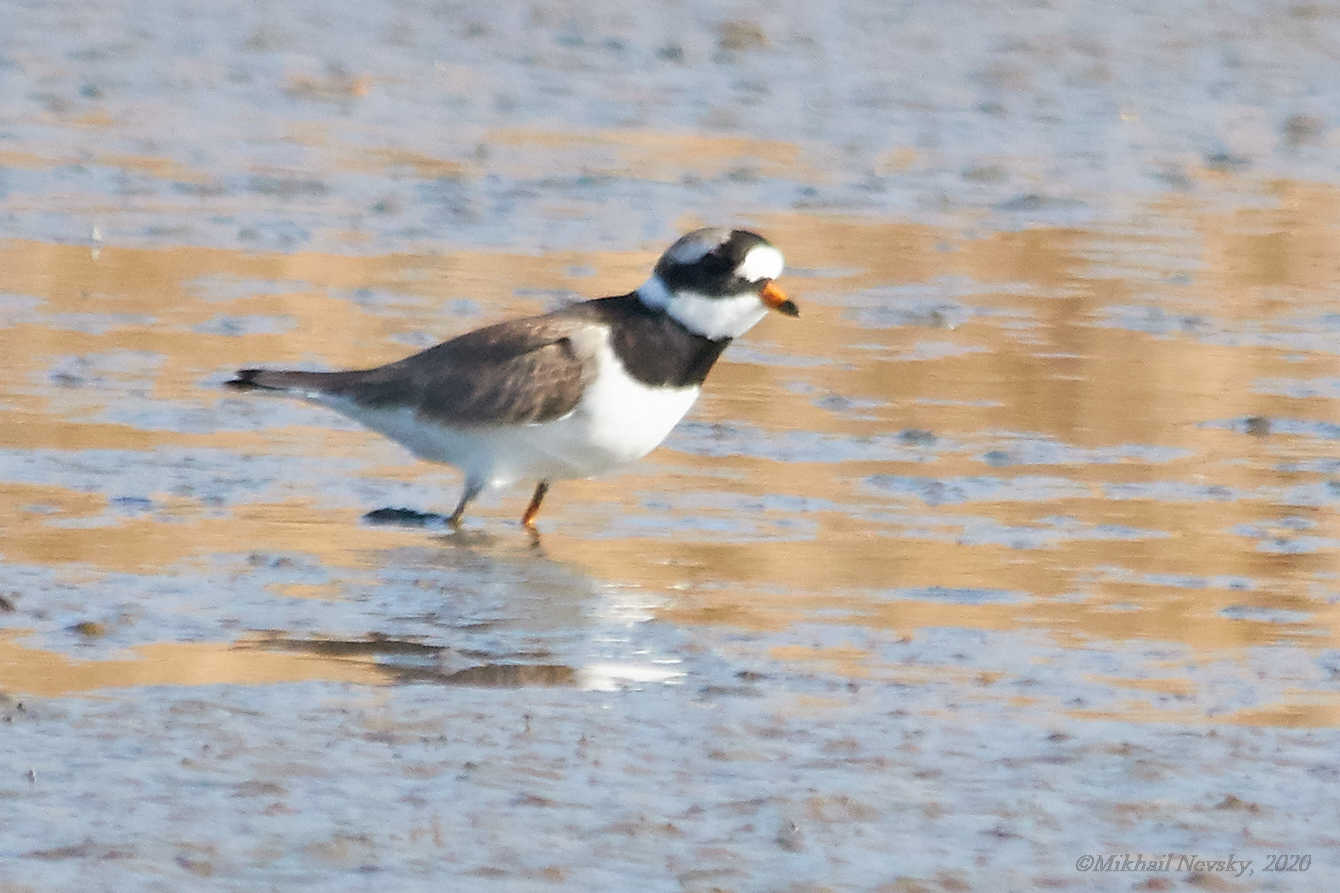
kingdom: Animalia
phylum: Chordata
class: Aves
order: Charadriiformes
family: Charadriidae
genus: Charadrius
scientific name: Charadrius hiaticula
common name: Common ringed plover
